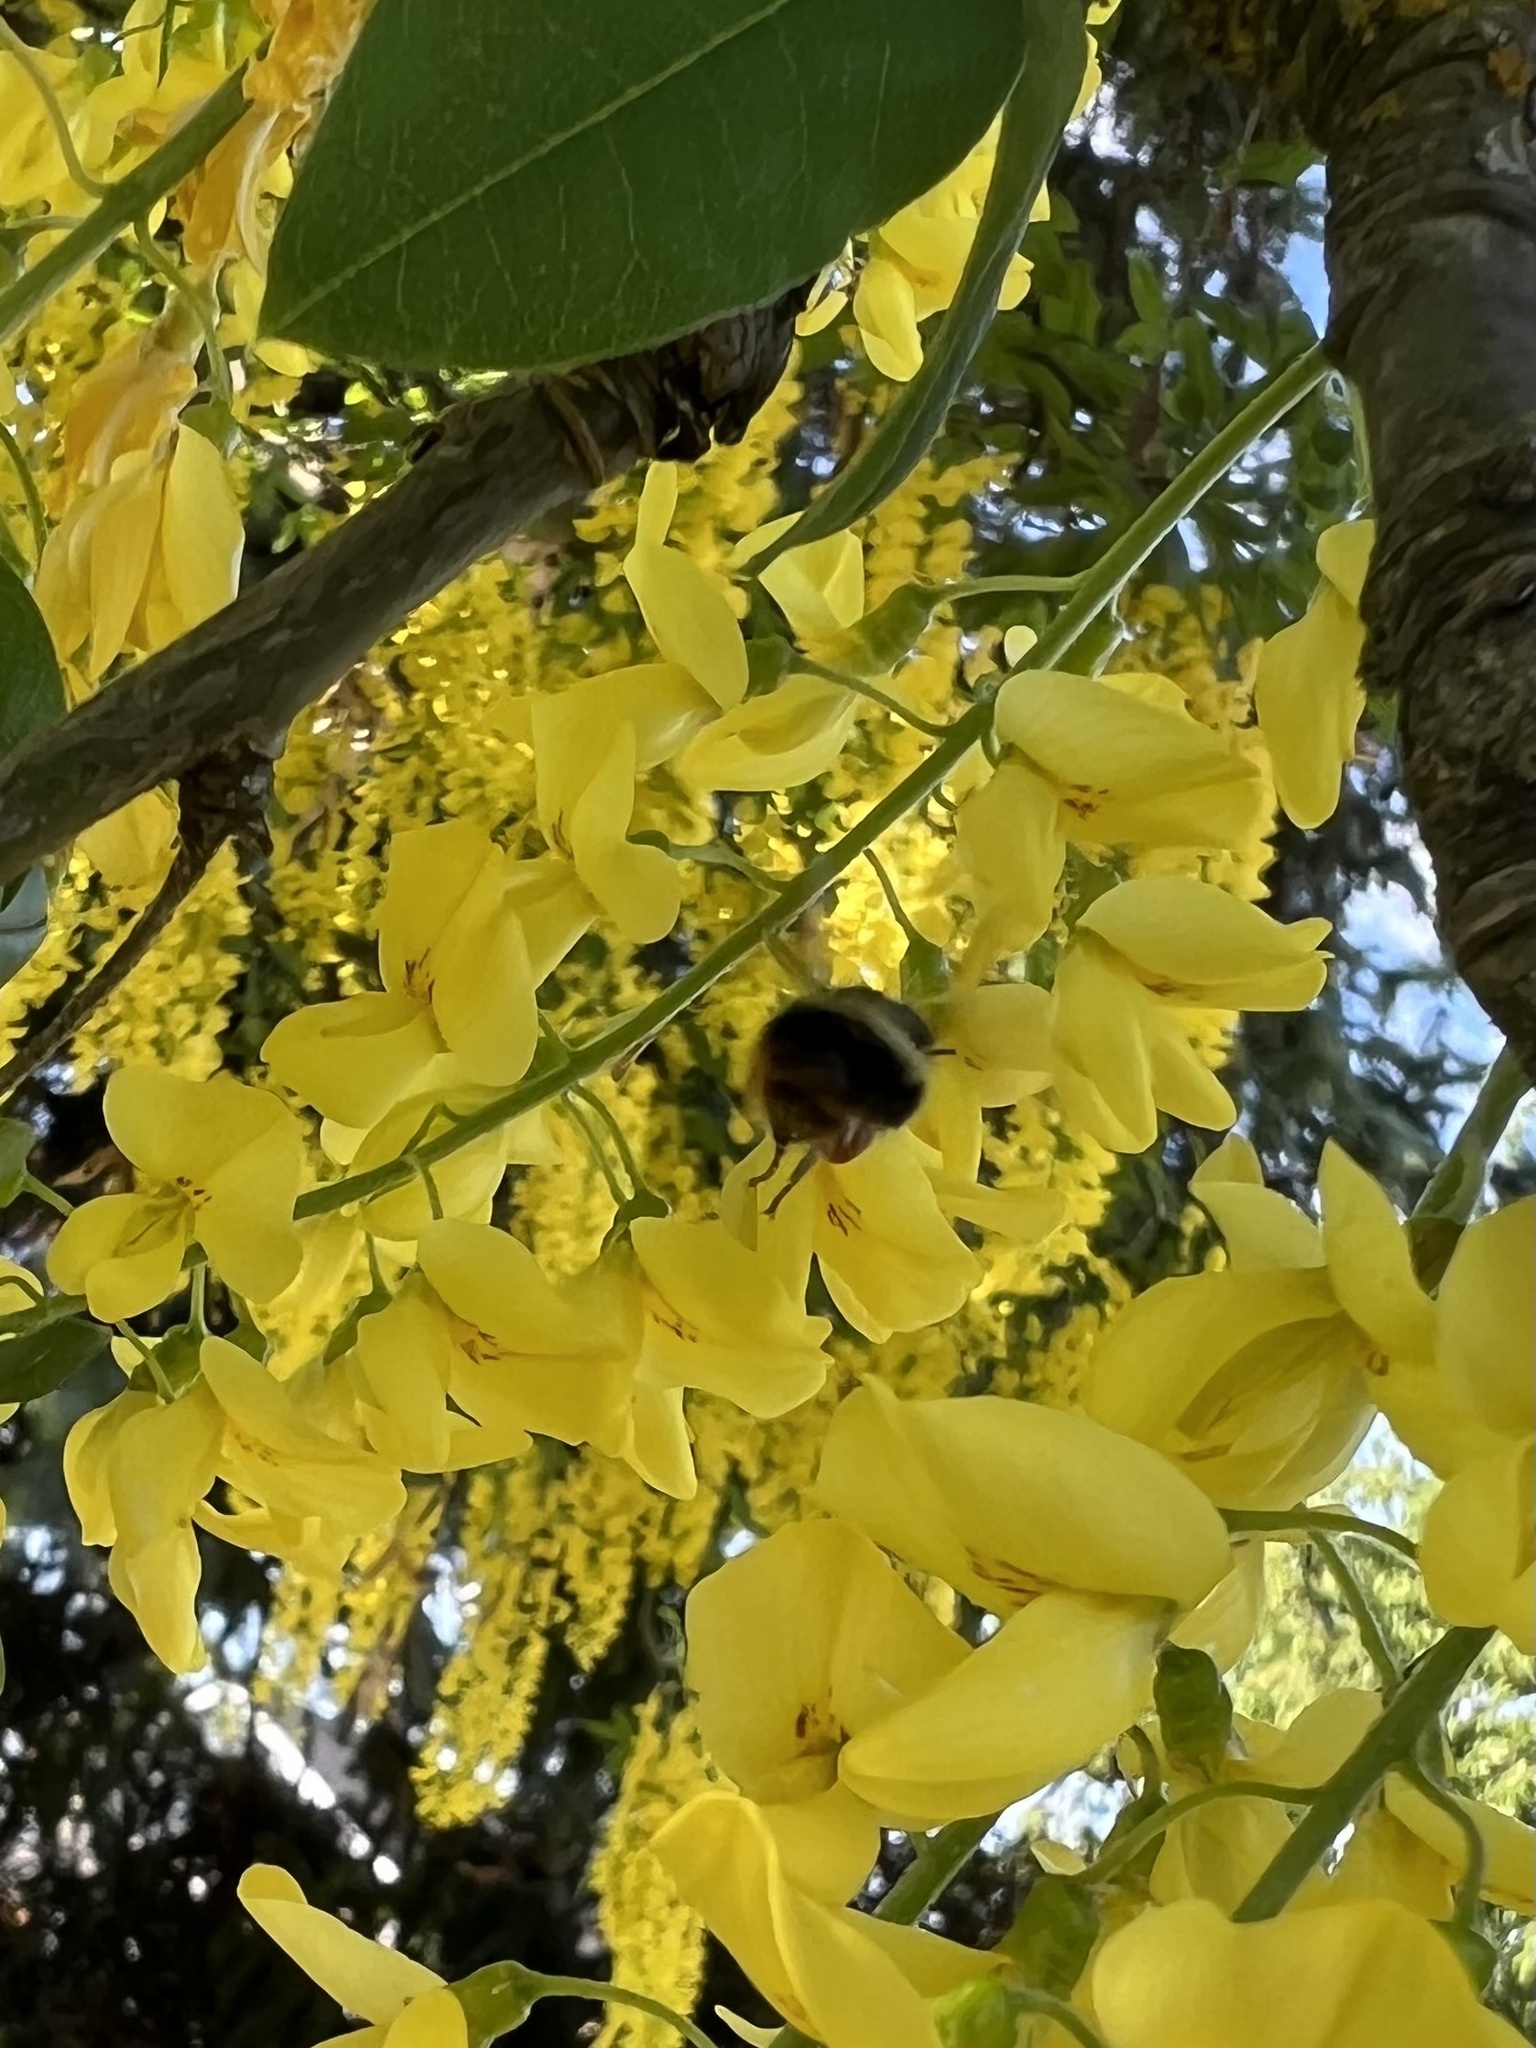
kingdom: Animalia
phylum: Arthropoda
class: Insecta
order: Hymenoptera
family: Apidae
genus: Bombus
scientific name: Bombus mixtus
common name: Fuzzy-horned bumble bee
